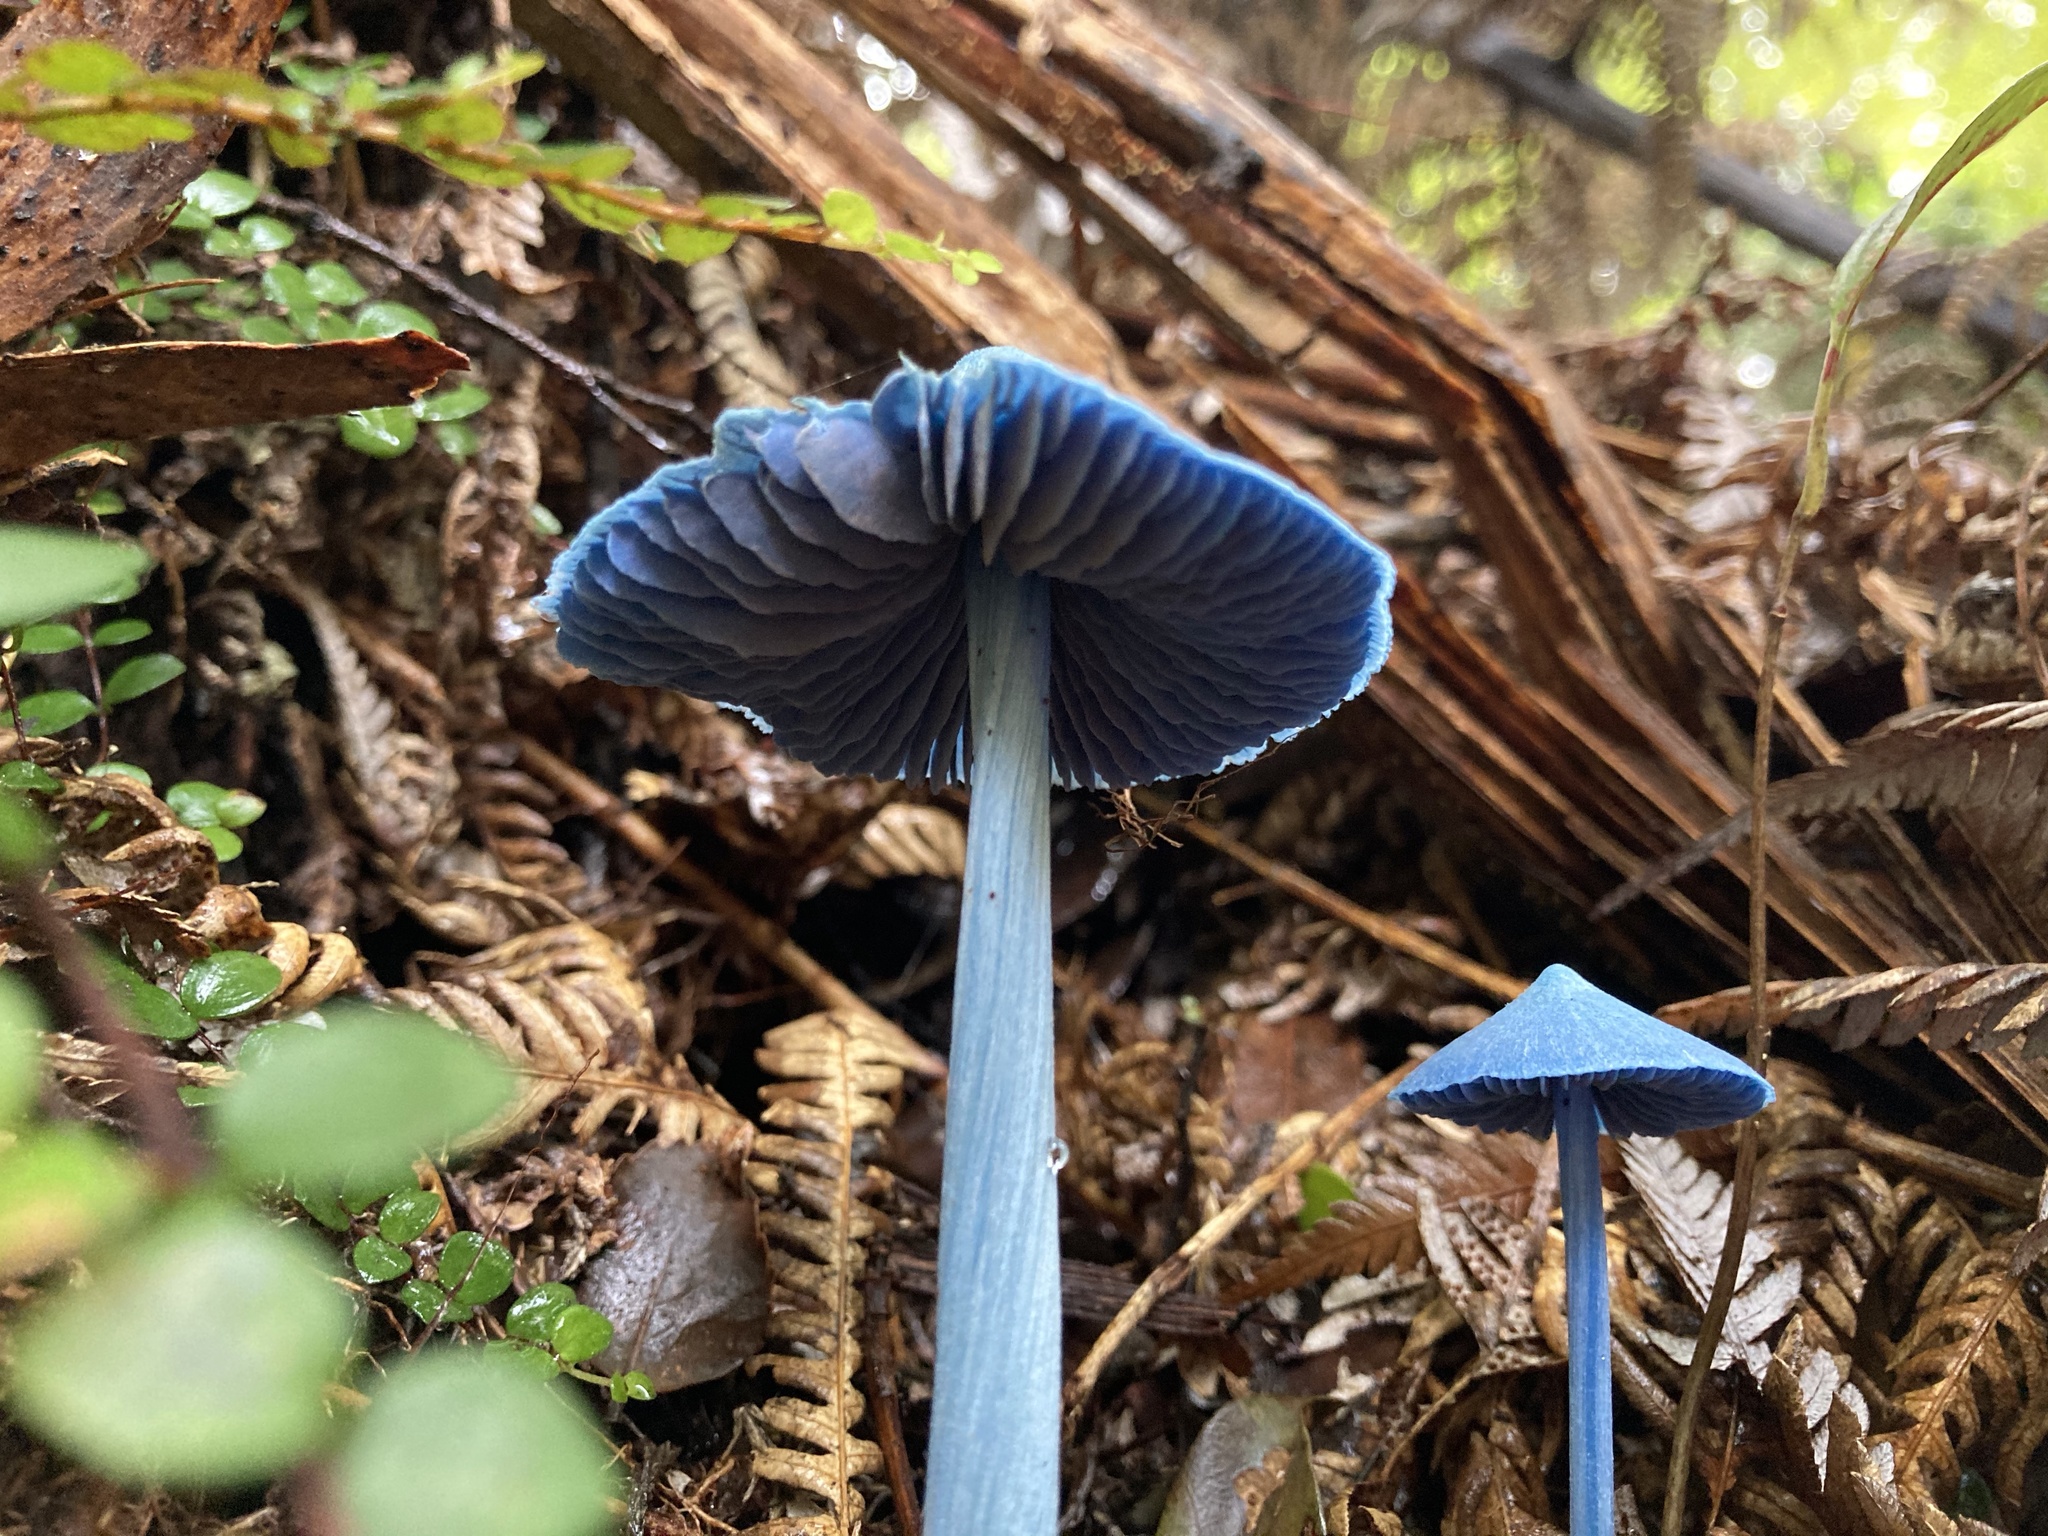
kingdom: Fungi
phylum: Basidiomycota
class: Agaricomycetes
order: Agaricales
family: Entolomataceae
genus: Entoloma
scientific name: Entoloma hochstetteri
